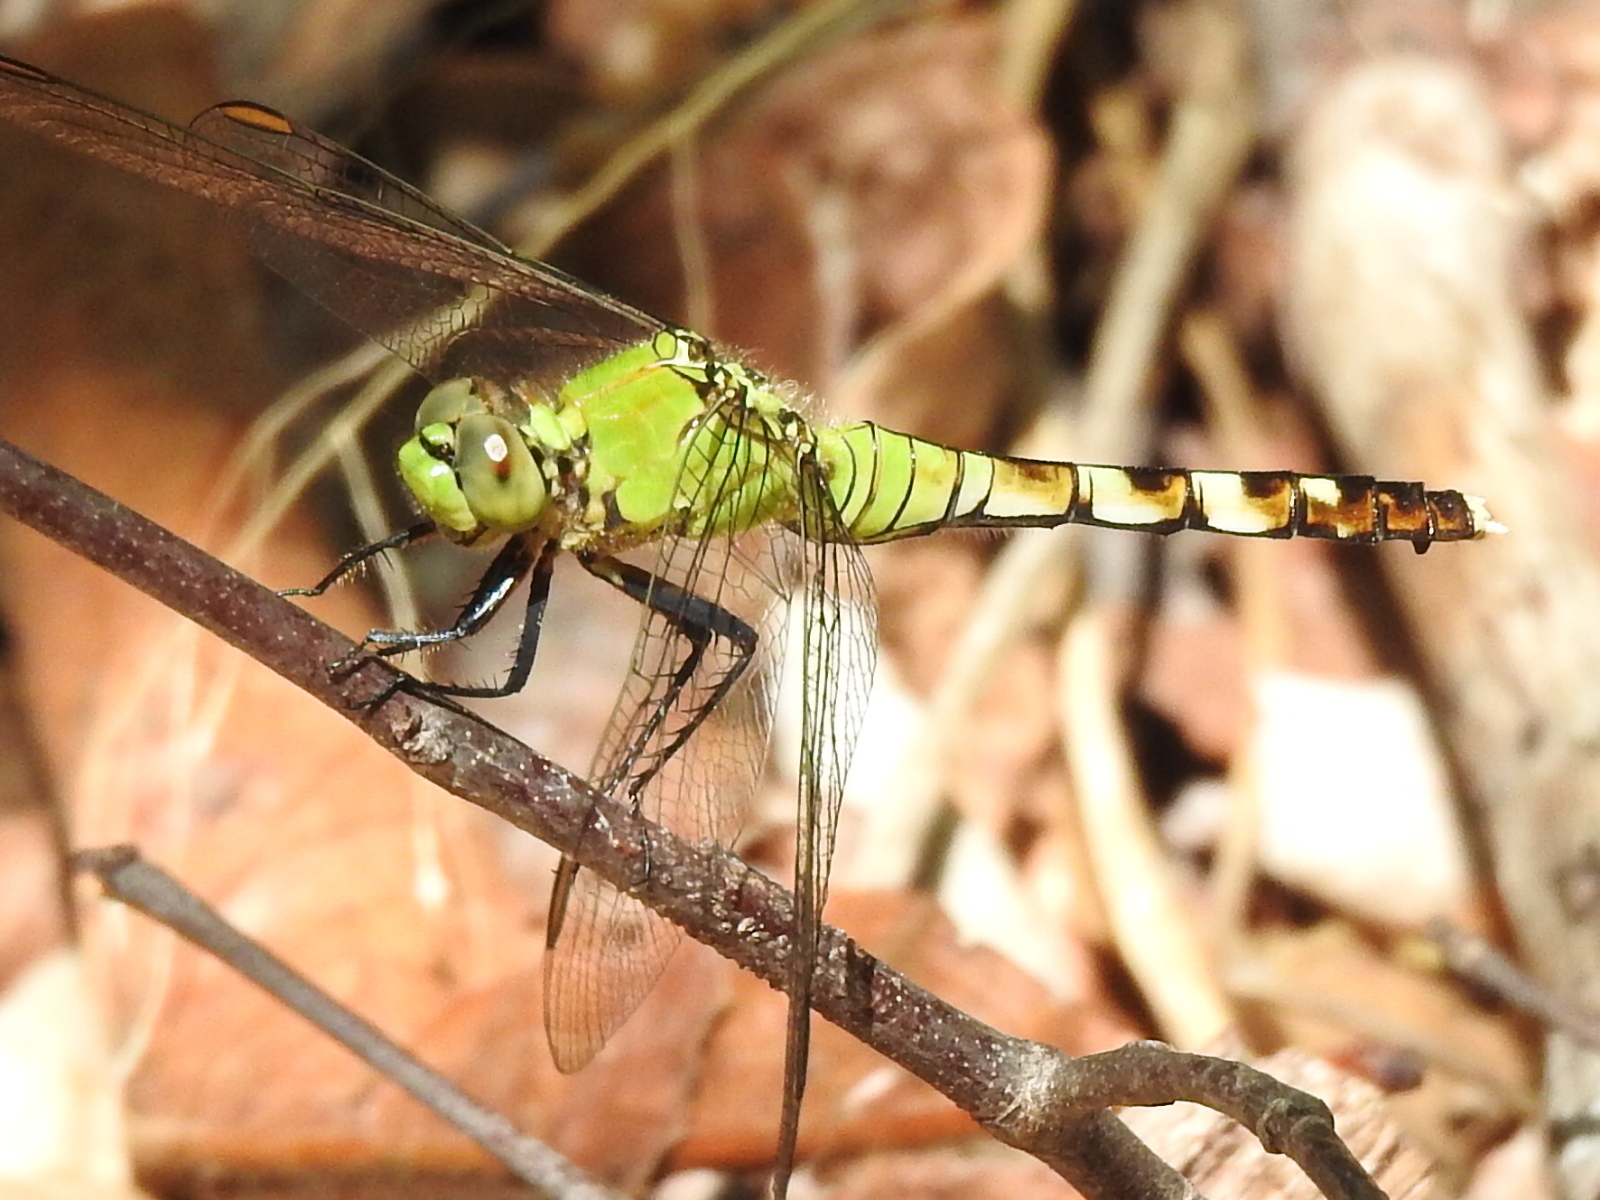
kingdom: Animalia
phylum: Arthropoda
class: Insecta
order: Odonata
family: Libellulidae
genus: Erythemis
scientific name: Erythemis simplicicollis
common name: Eastern pondhawk
